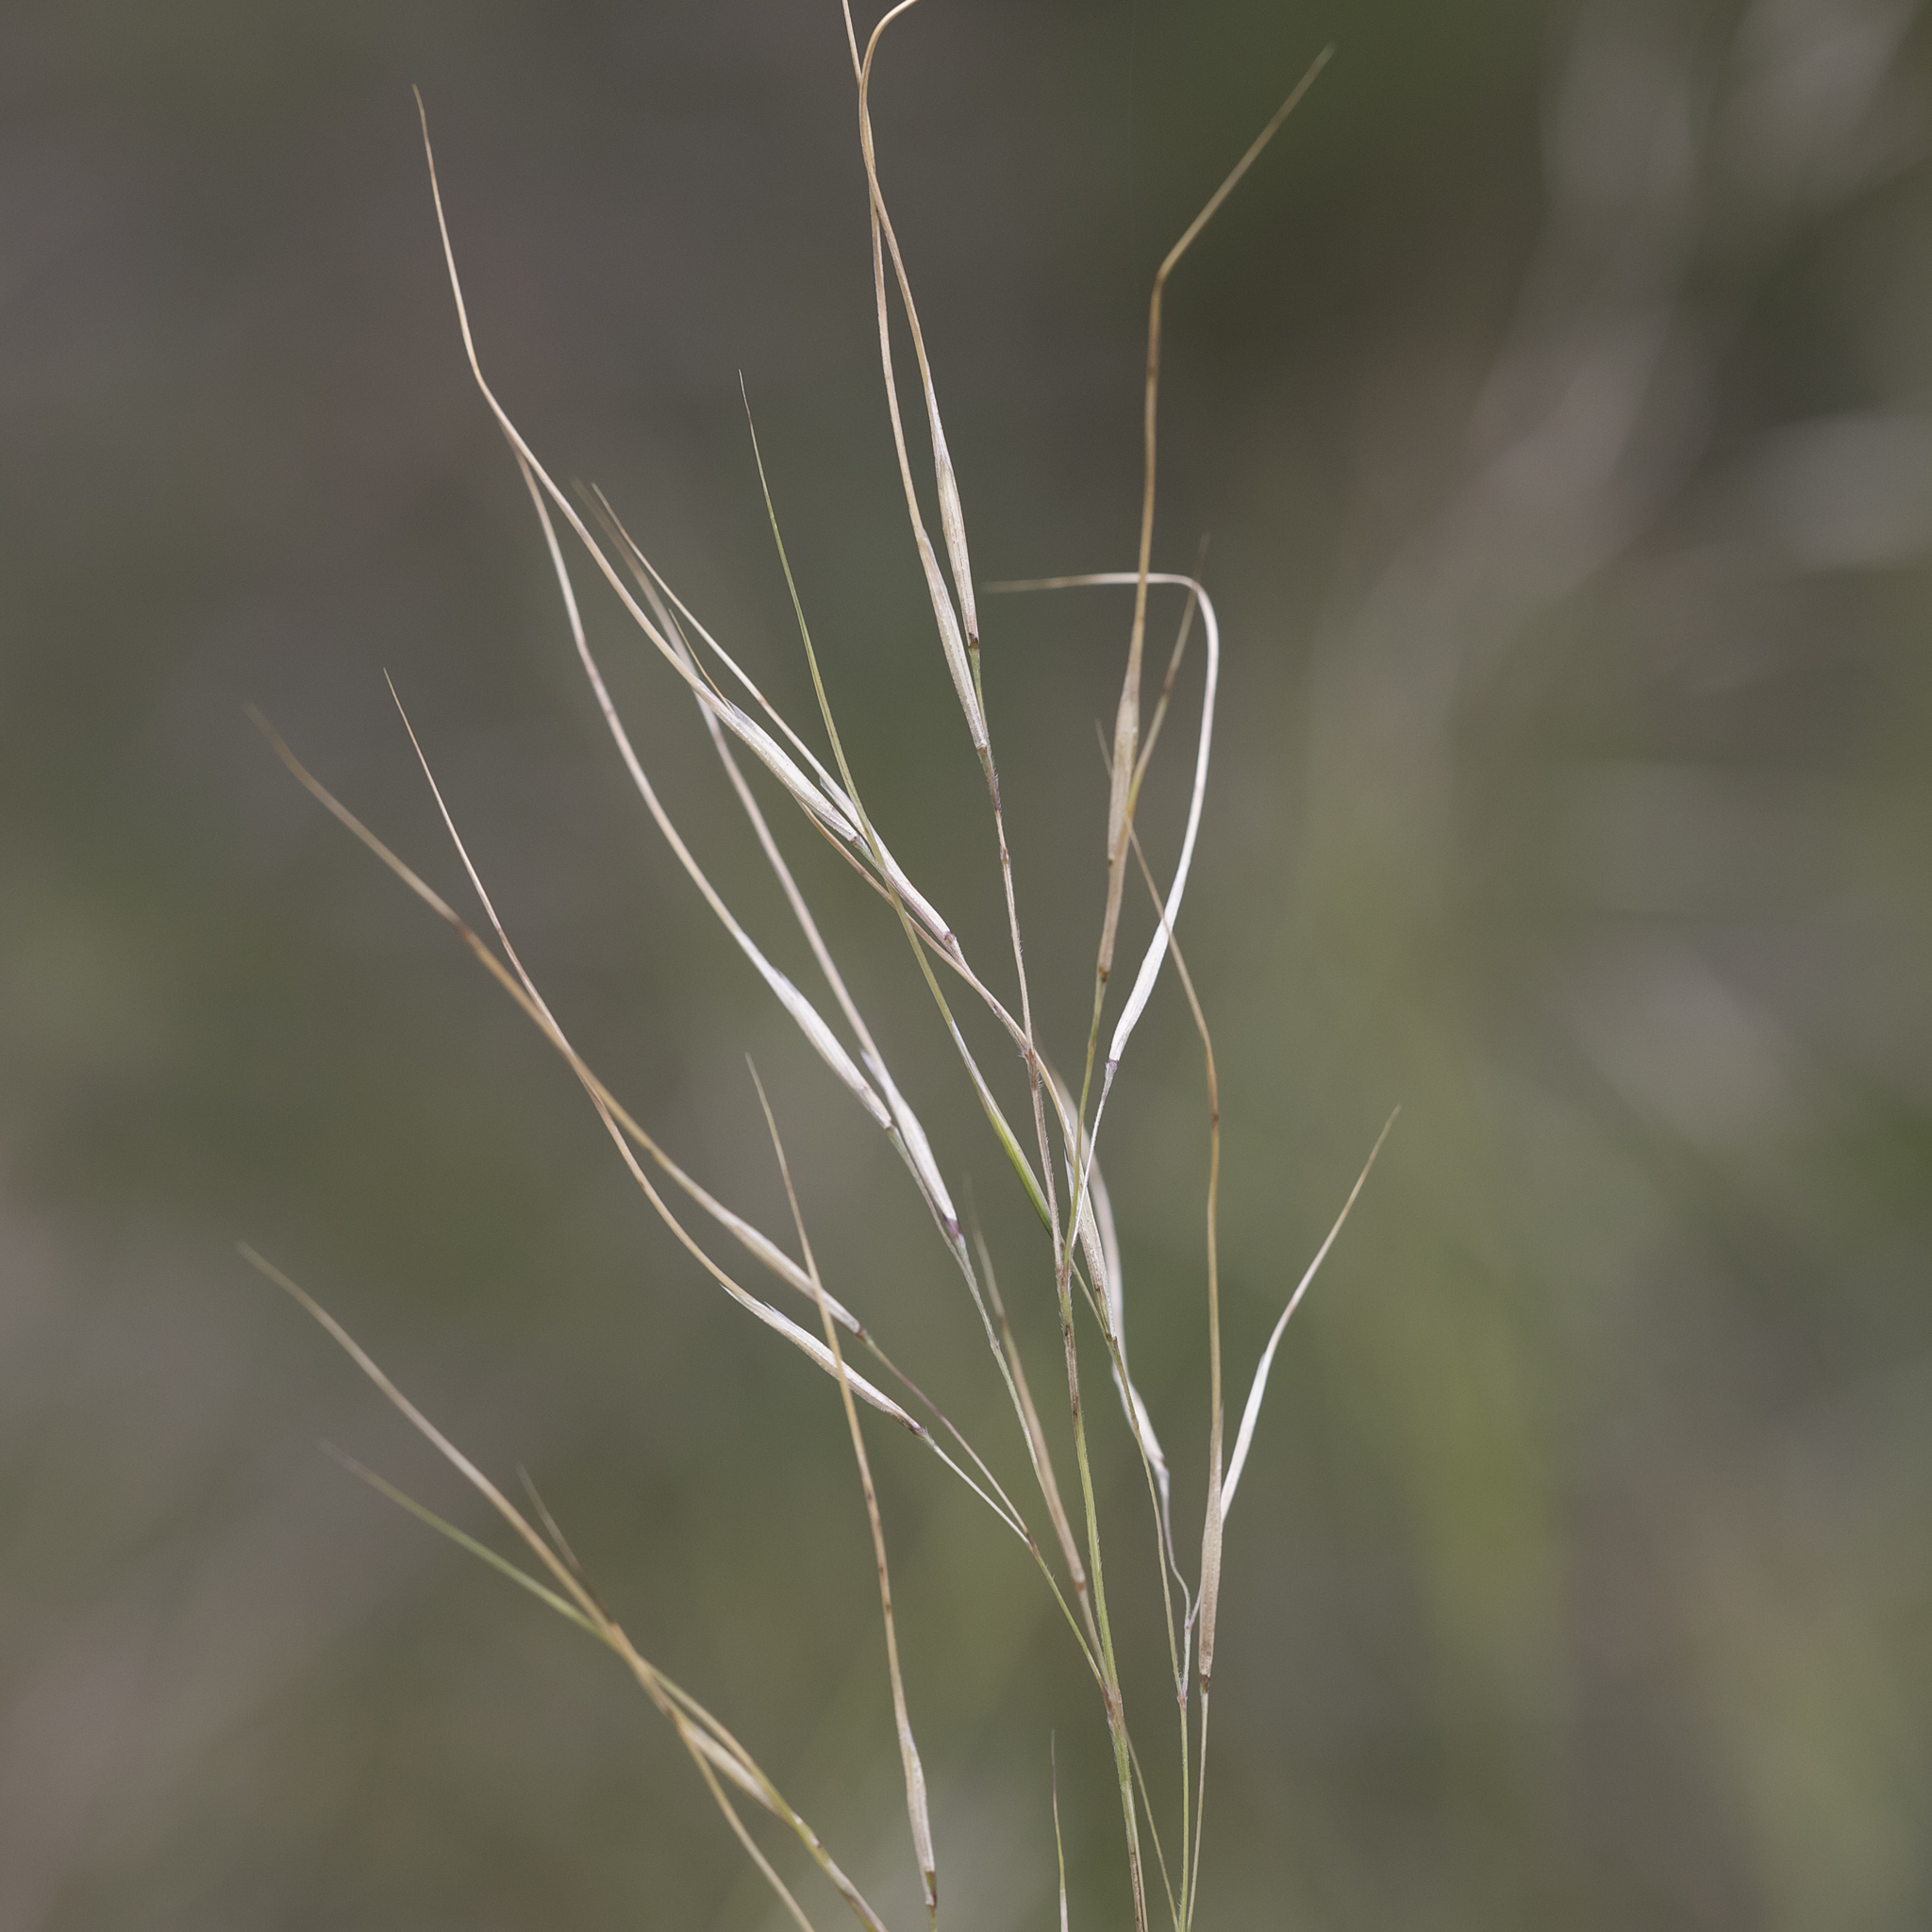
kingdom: Plantae
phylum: Tracheophyta
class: Liliopsida
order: Poales
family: Poaceae
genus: Austrostipa
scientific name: Austrostipa pubinodis
